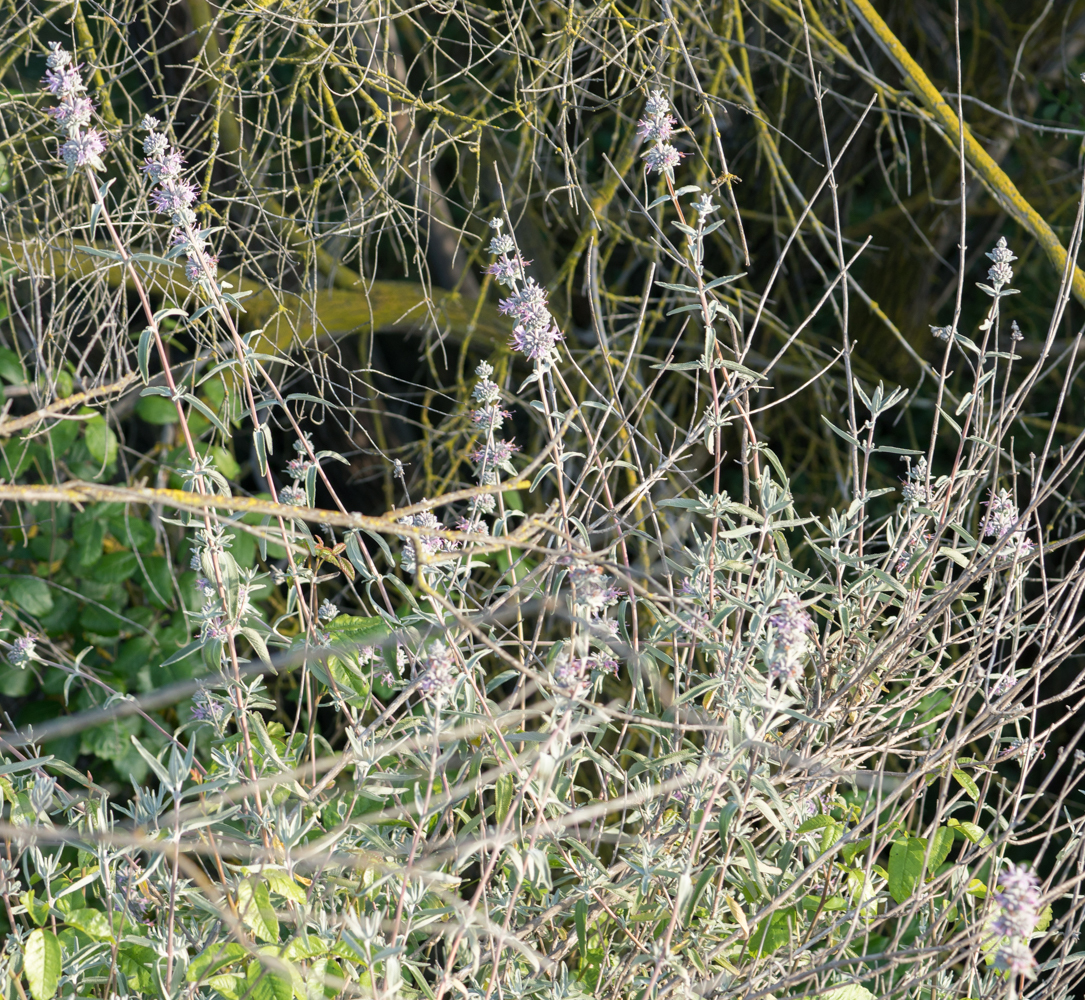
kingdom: Plantae
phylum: Tracheophyta
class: Magnoliopsida
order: Lamiales
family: Lamiaceae
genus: Salvia
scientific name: Salvia leucophylla
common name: Purple sage
